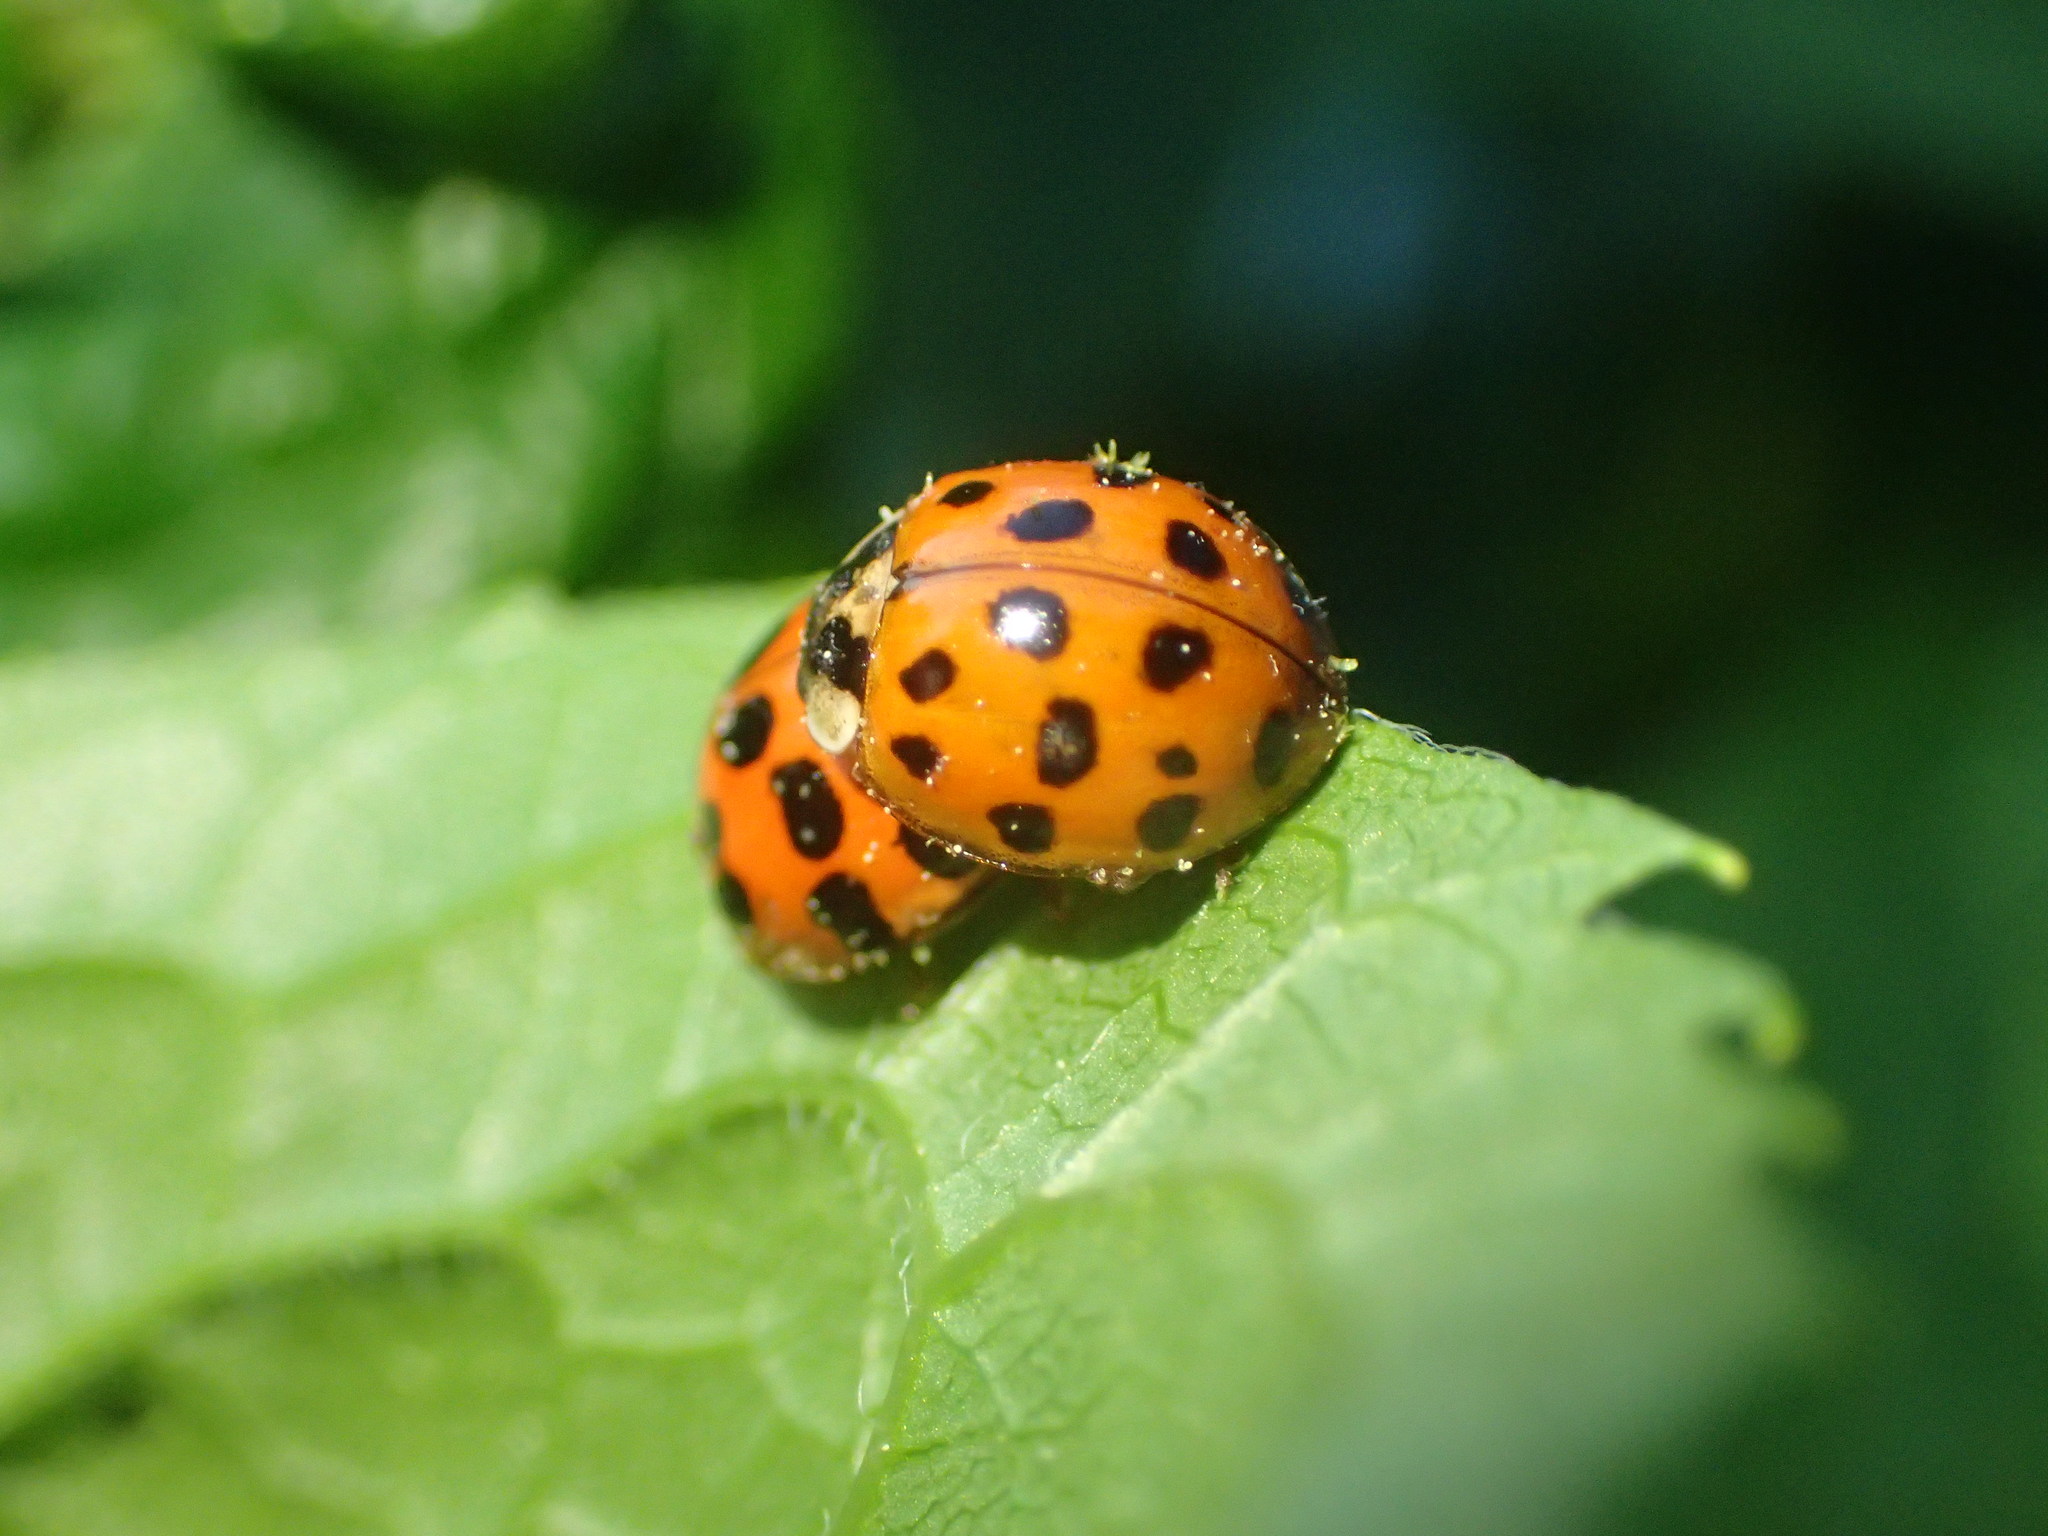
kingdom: Animalia
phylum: Arthropoda
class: Insecta
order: Coleoptera
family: Coccinellidae
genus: Harmonia
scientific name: Harmonia axyridis
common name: Harlequin ladybird
